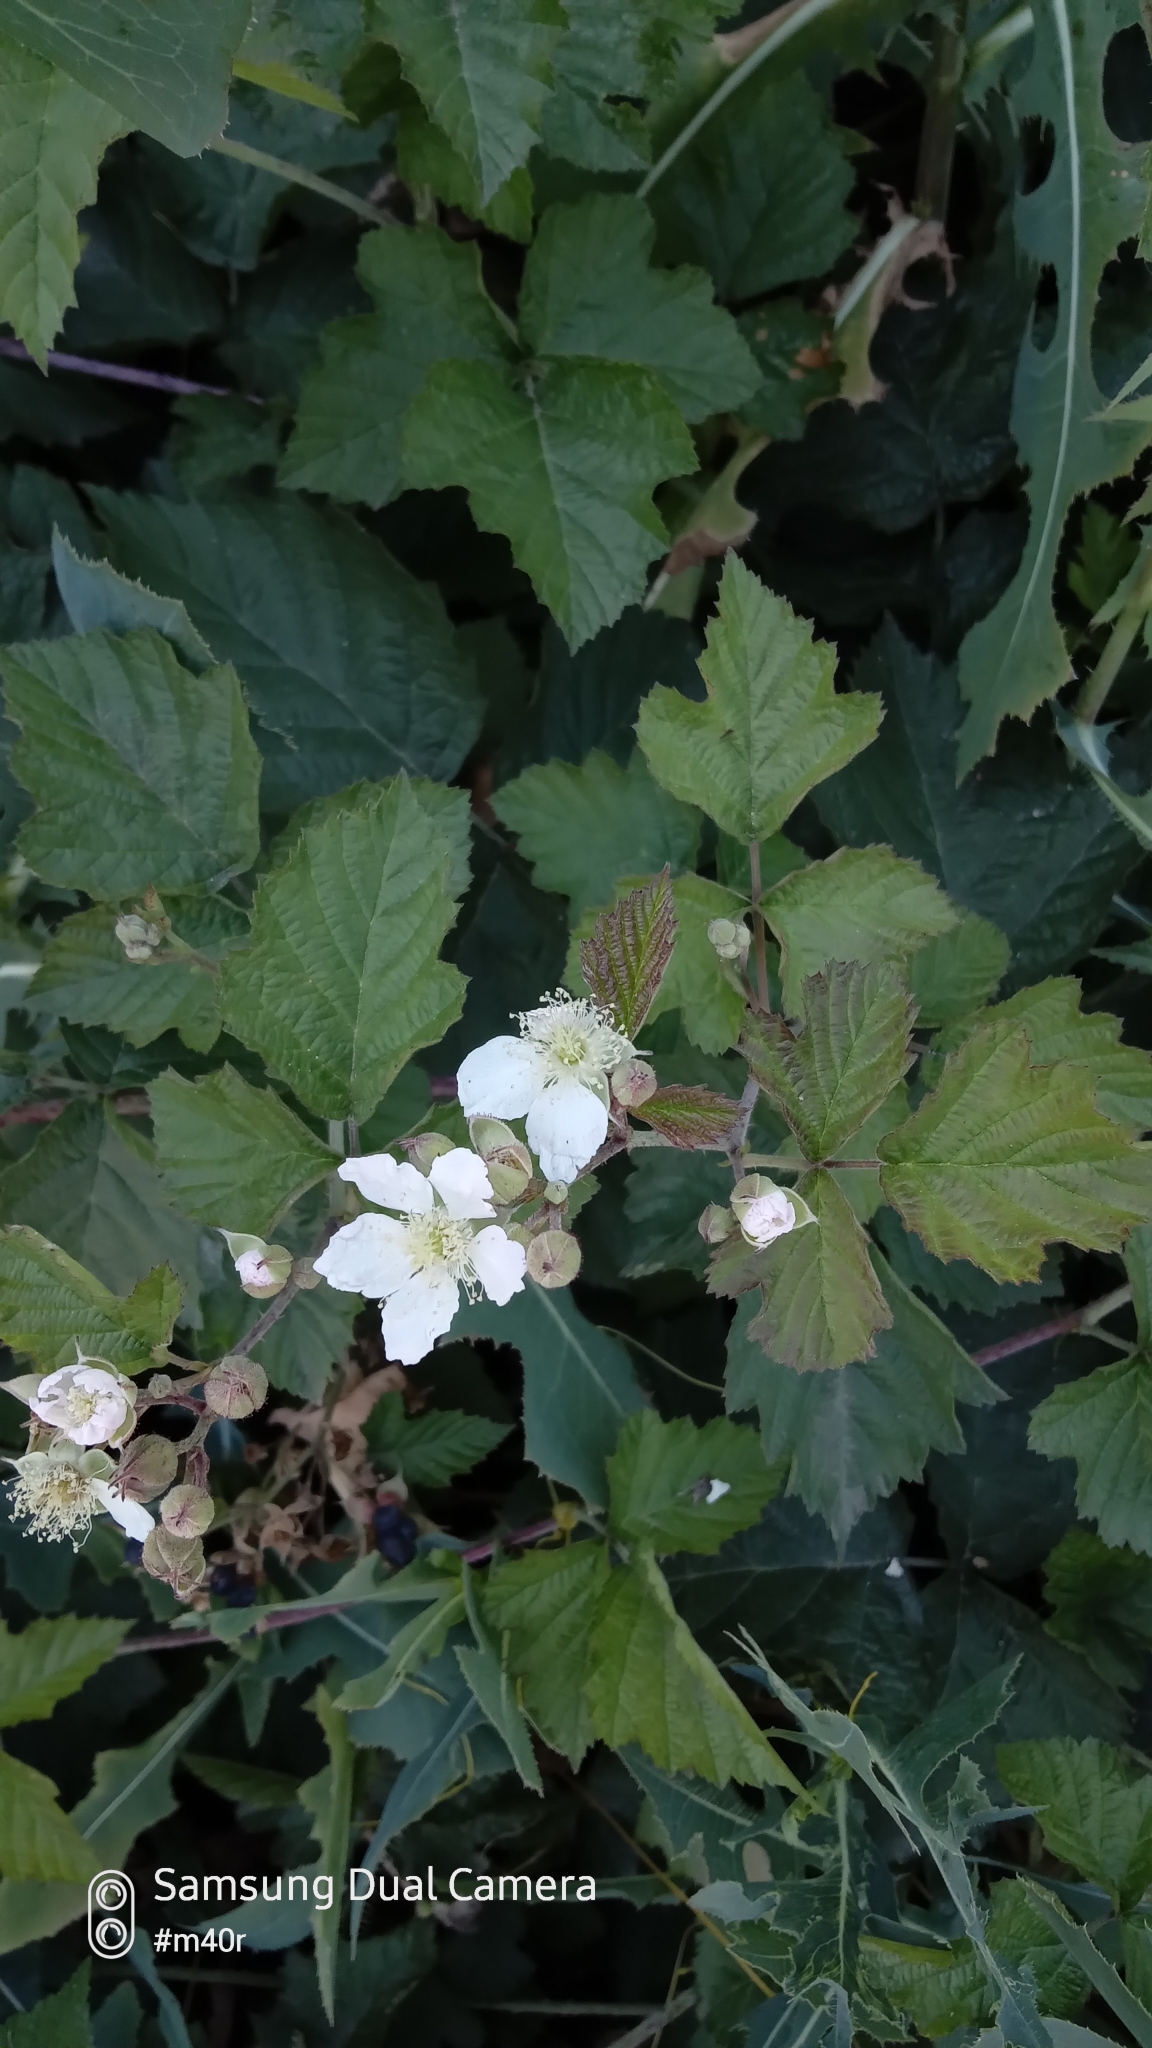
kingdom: Plantae
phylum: Tracheophyta
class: Magnoliopsida
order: Rosales
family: Rosaceae
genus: Rubus
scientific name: Rubus caesius
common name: Dewberry
